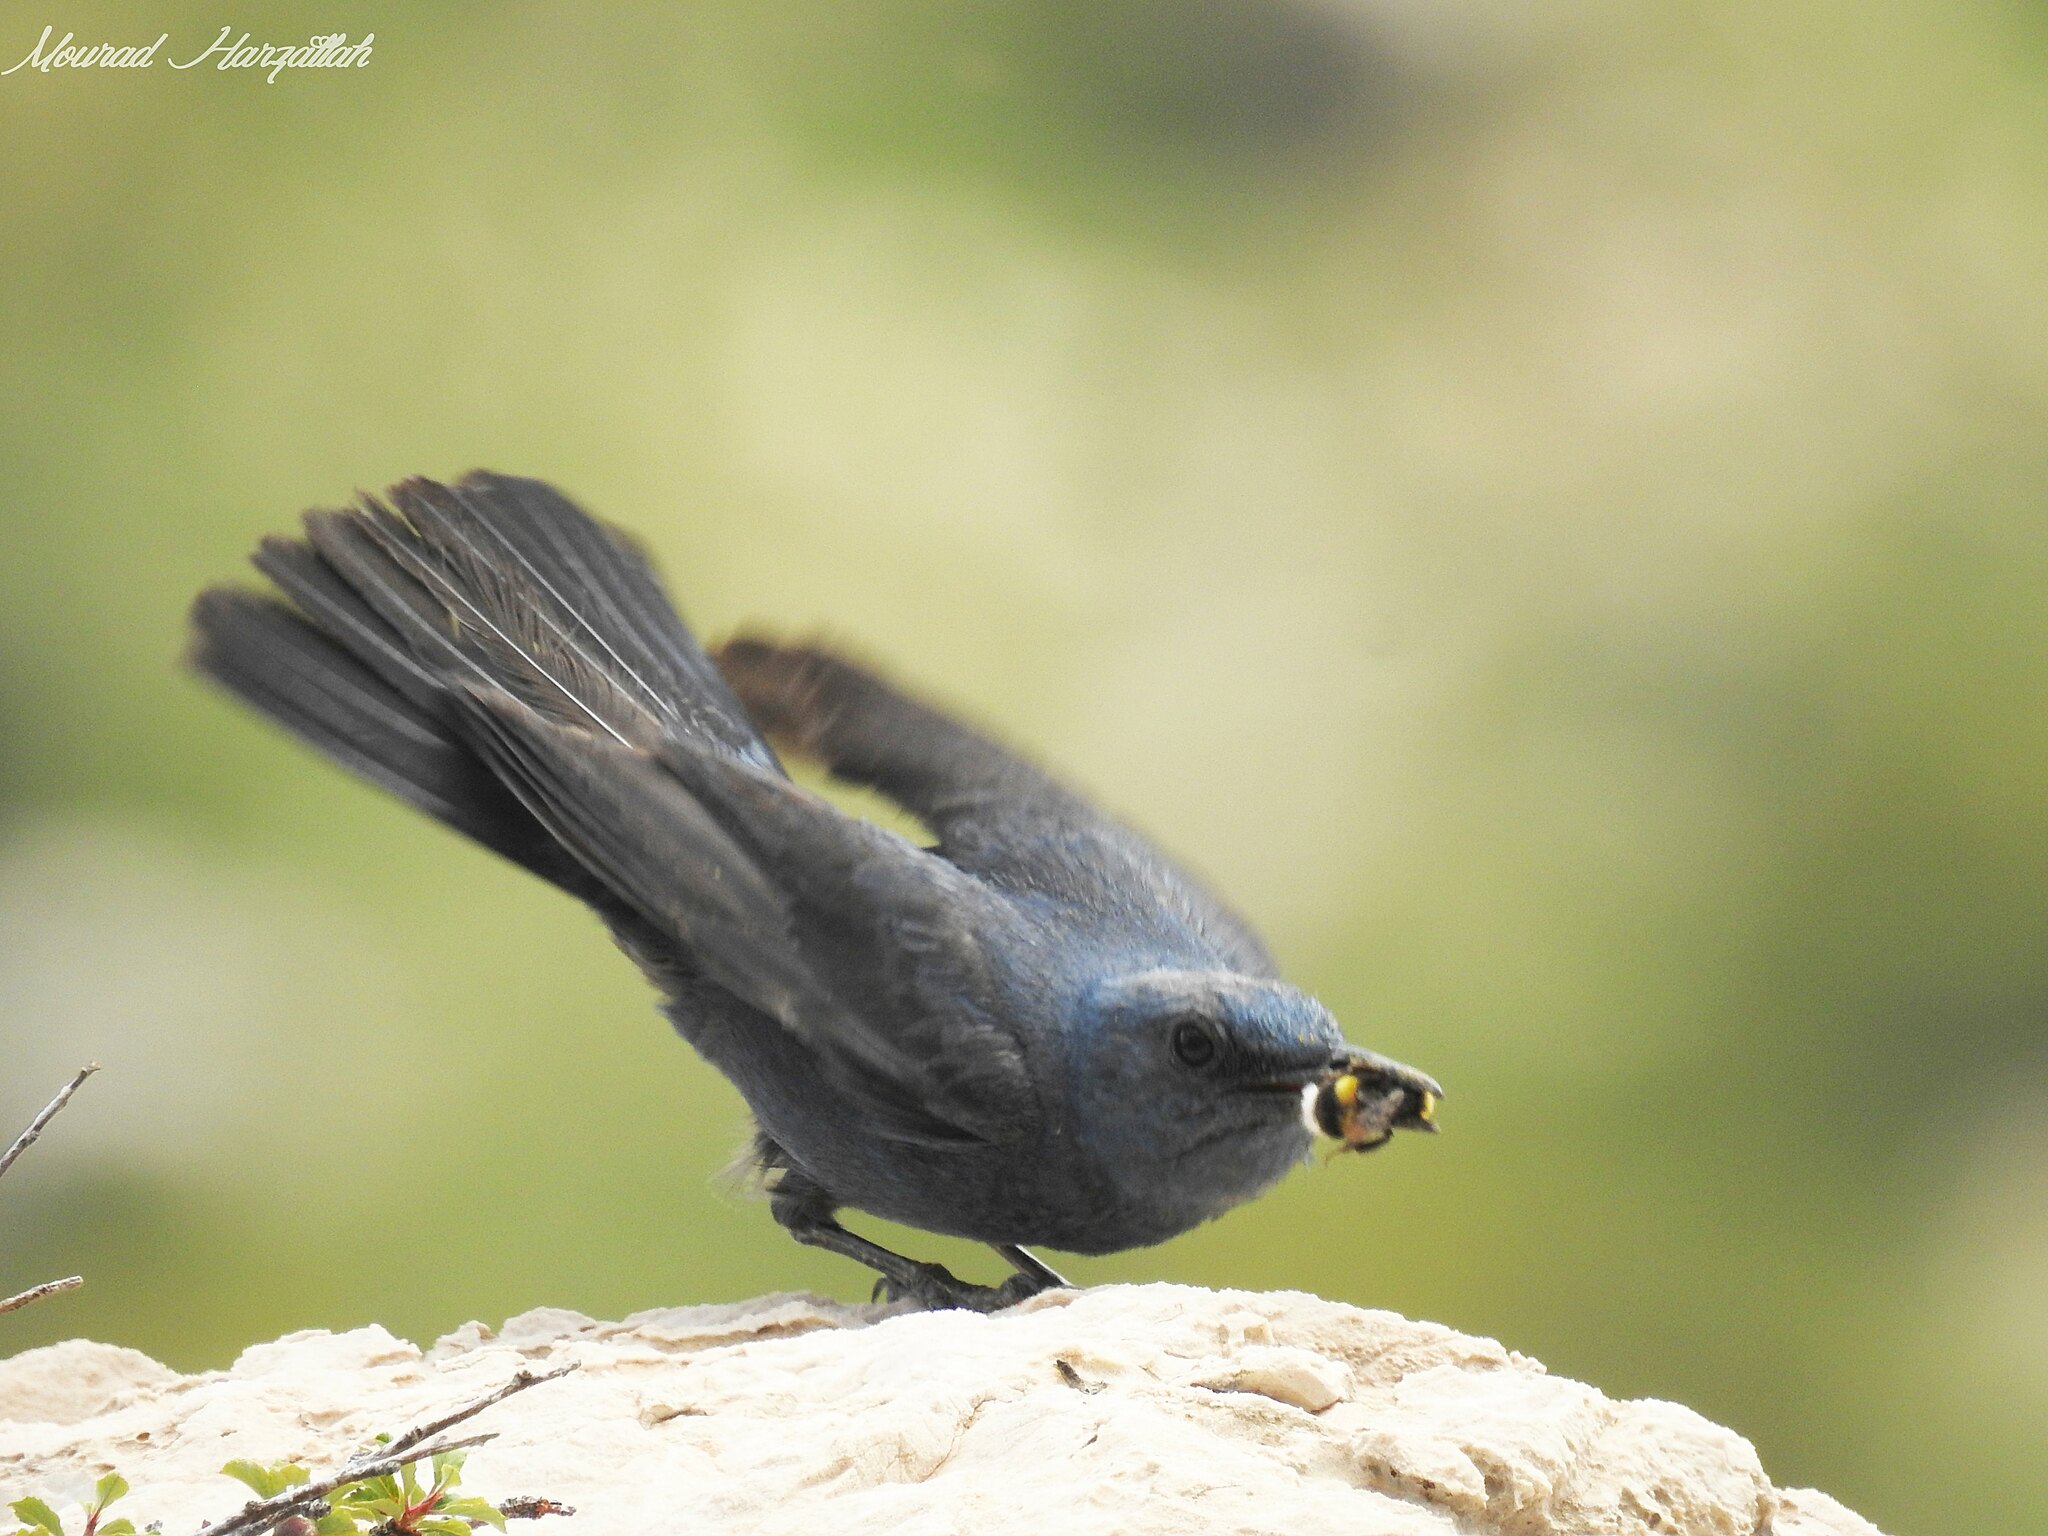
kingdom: Animalia
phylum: Chordata
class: Aves
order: Passeriformes
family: Muscicapidae
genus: Monticola
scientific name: Monticola solitarius
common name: Blue rock thrush
